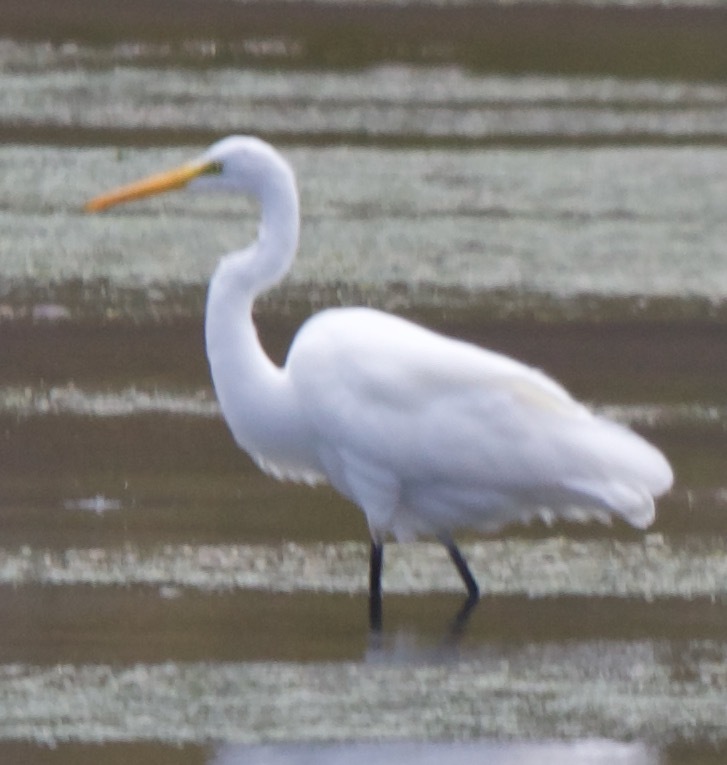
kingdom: Animalia
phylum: Chordata
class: Aves
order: Pelecaniformes
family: Ardeidae
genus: Ardea
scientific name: Ardea alba
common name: Great egret
